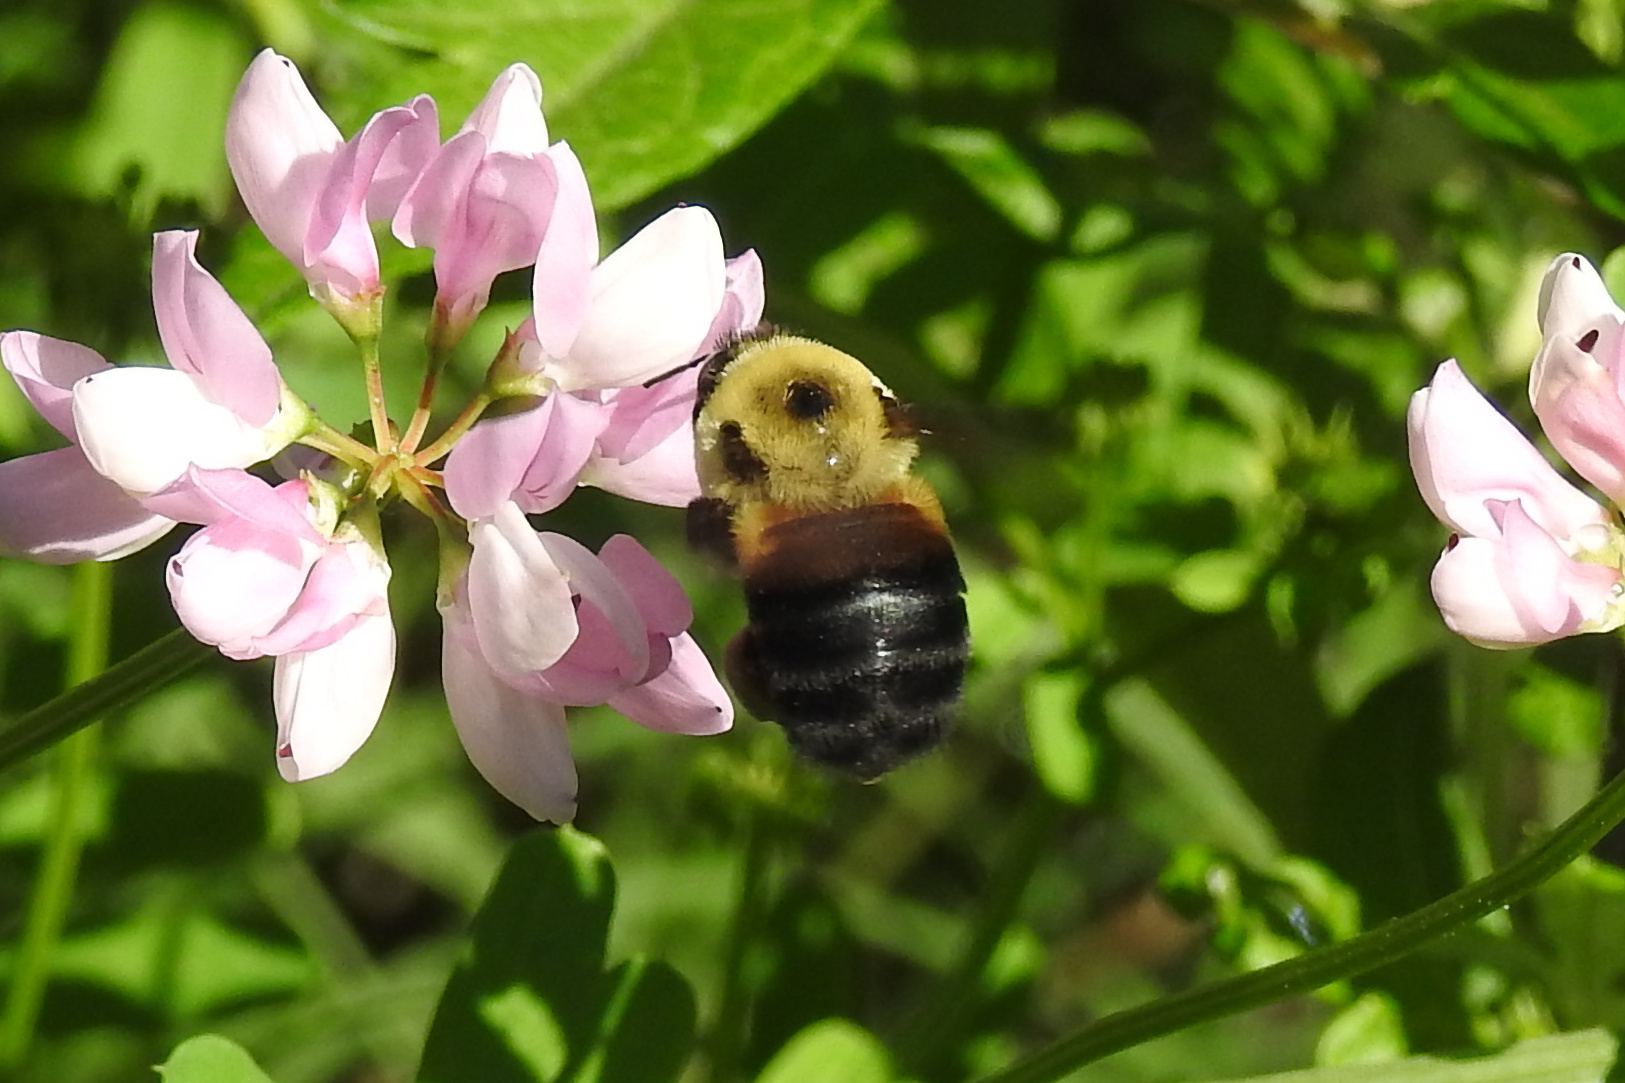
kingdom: Animalia
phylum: Arthropoda
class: Insecta
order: Hymenoptera
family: Apidae
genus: Bombus
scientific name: Bombus griseocollis
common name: Brown-belted bumble bee
